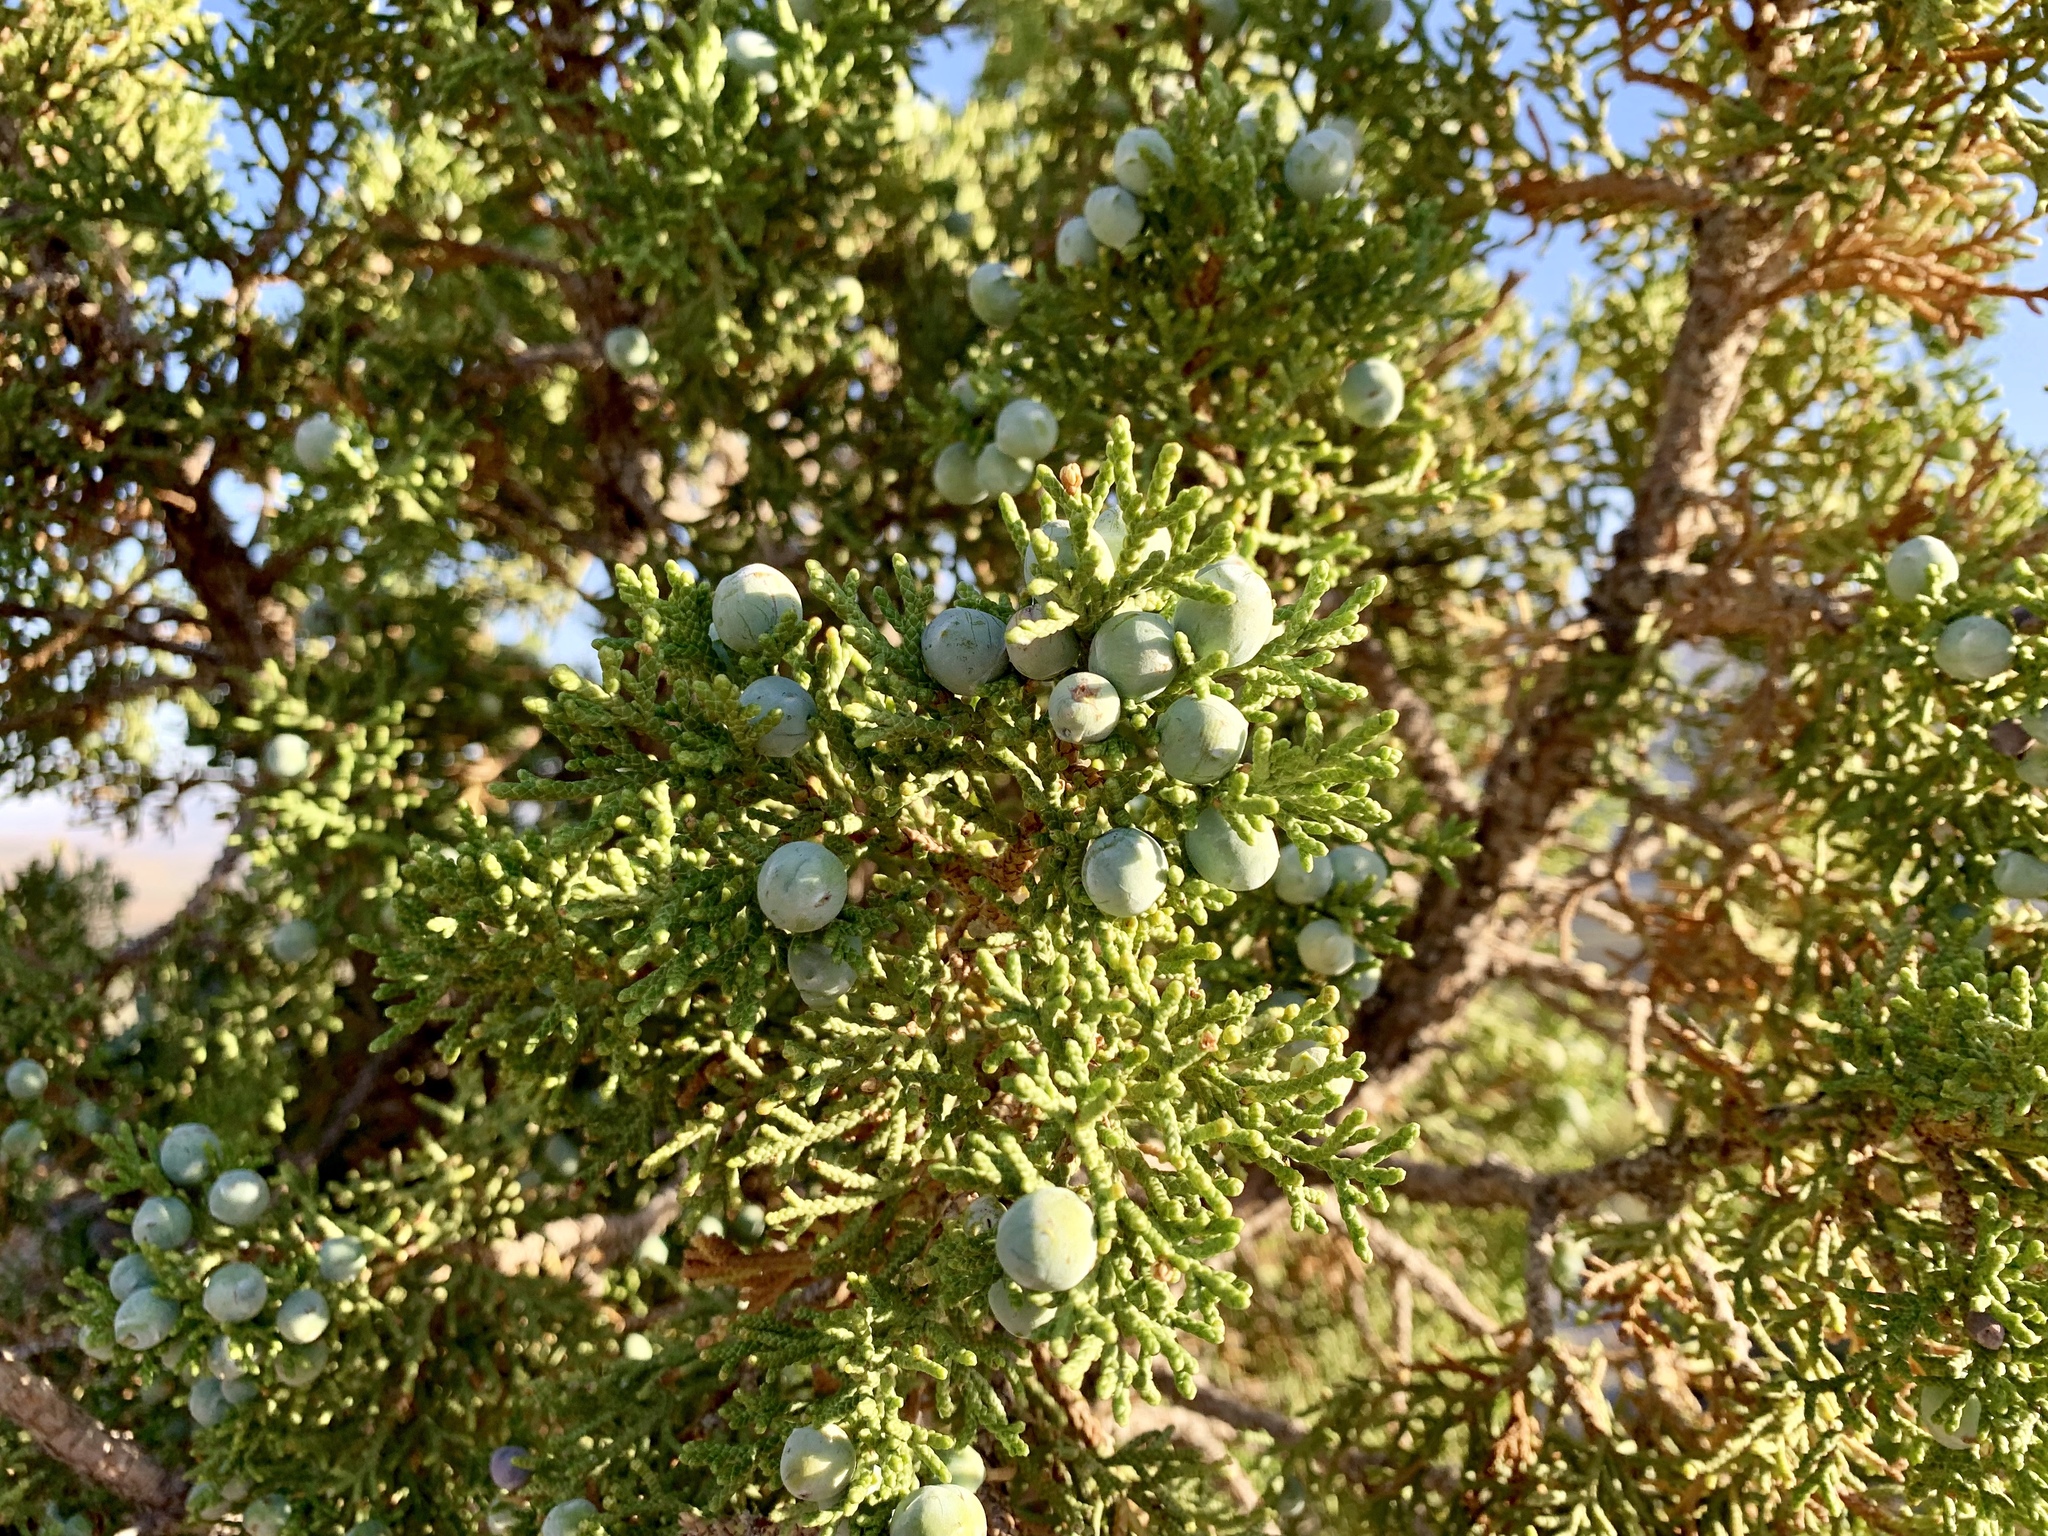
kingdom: Plantae
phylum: Tracheophyta
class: Pinopsida
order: Pinales
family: Cupressaceae
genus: Juniperus
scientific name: Juniperus osteosperma
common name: Utah juniper
